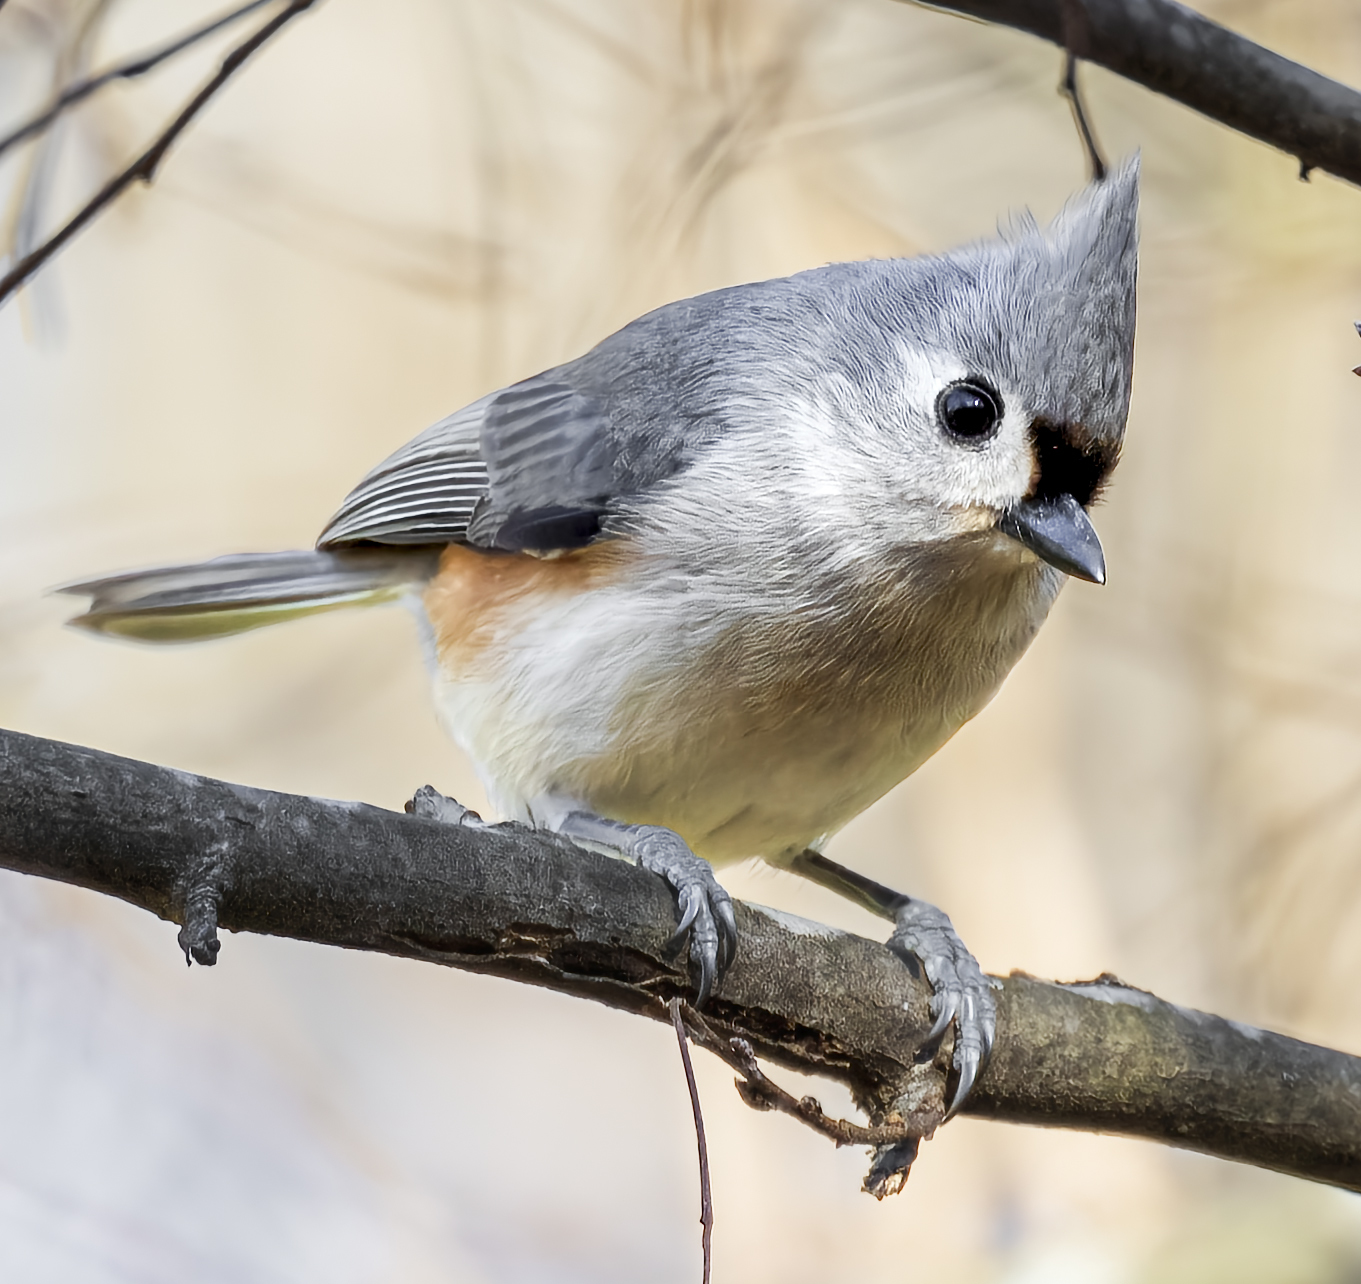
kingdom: Animalia
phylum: Chordata
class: Aves
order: Passeriformes
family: Paridae
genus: Baeolophus
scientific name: Baeolophus bicolor
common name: Tufted titmouse
